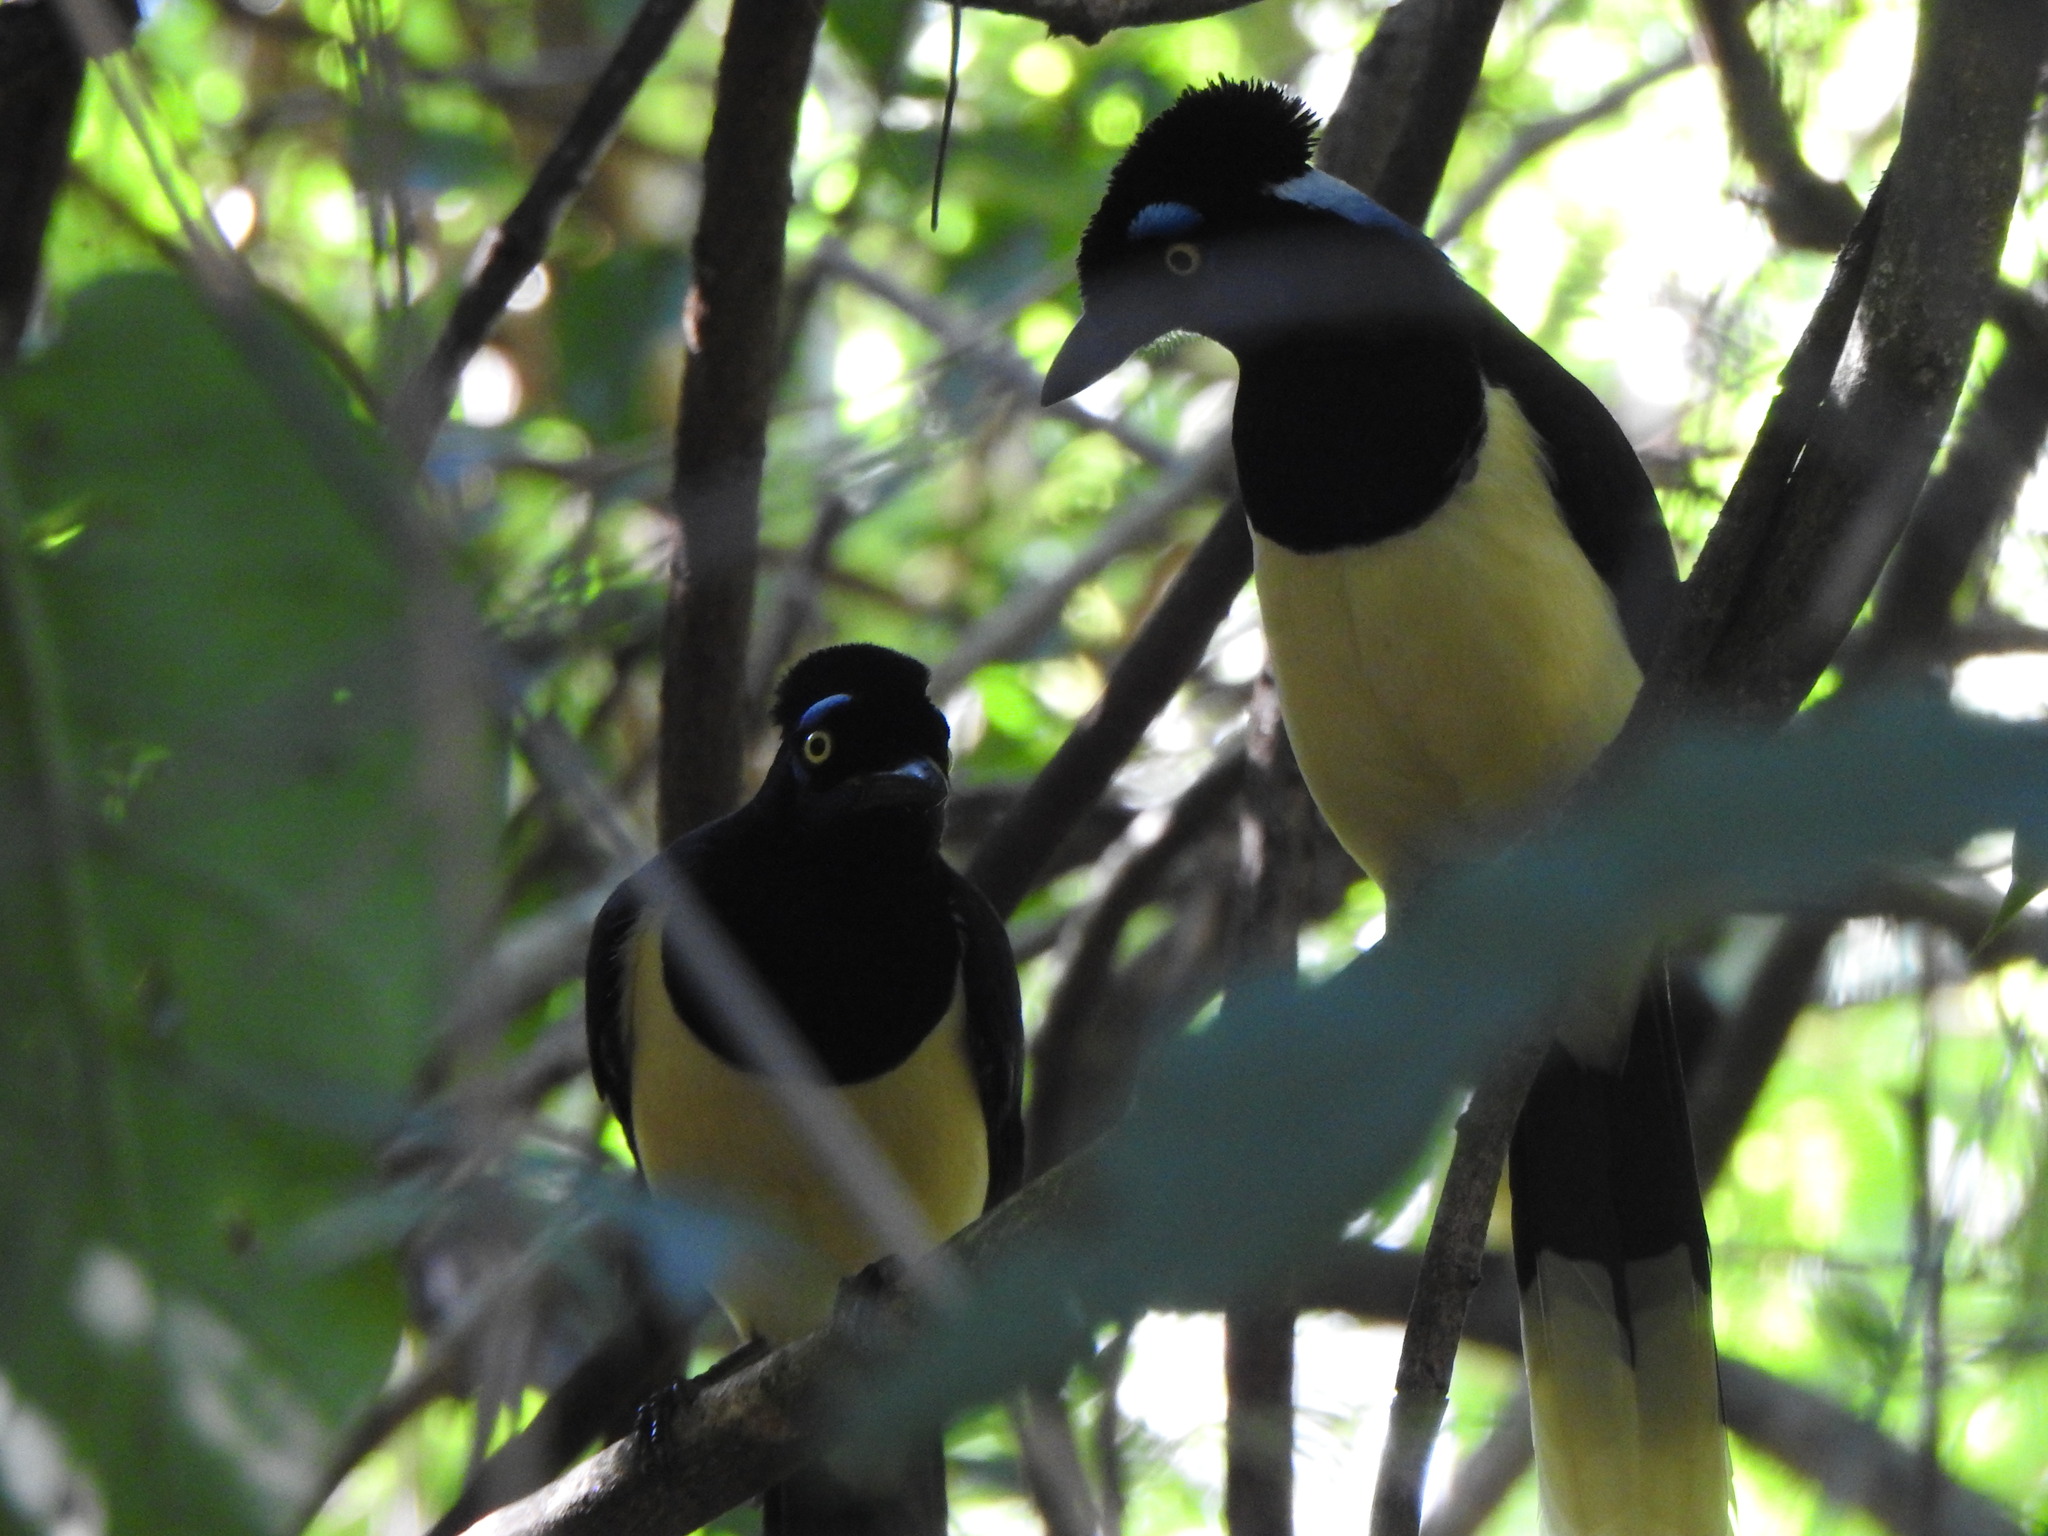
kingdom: Animalia
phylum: Chordata
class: Aves
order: Passeriformes
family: Corvidae
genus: Cyanocorax
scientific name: Cyanocorax chrysops
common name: Plush-crested jay
